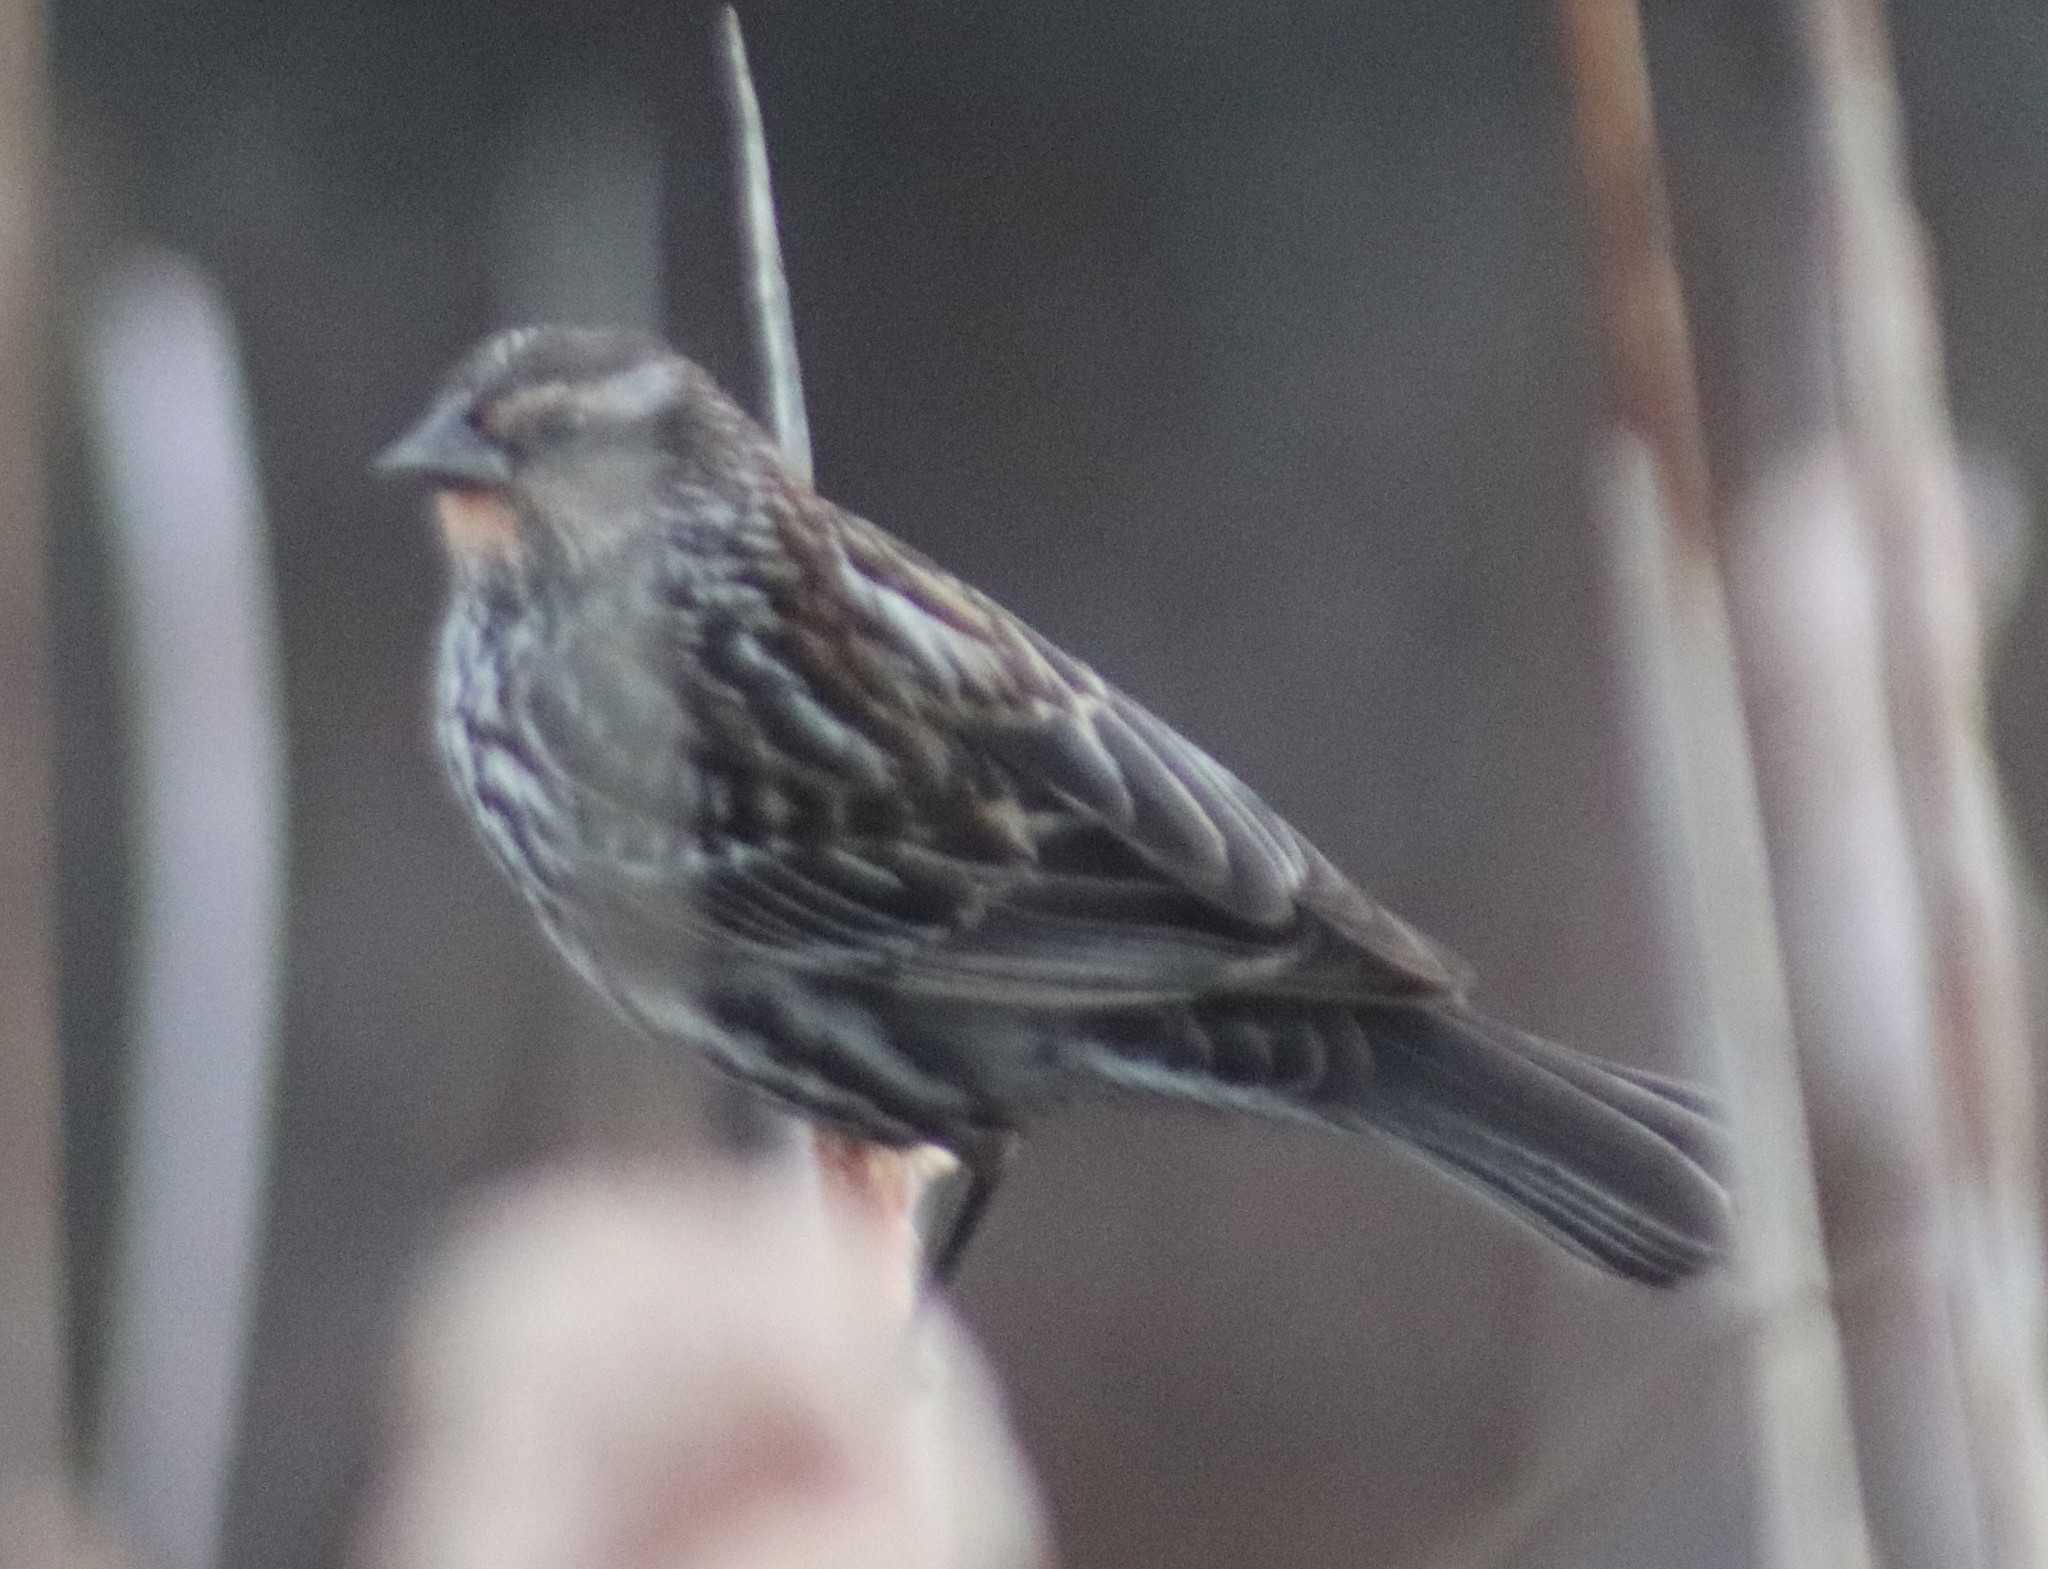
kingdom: Animalia
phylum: Chordata
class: Aves
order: Passeriformes
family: Icteridae
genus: Agelaius
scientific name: Agelaius phoeniceus
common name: Red-winged blackbird
